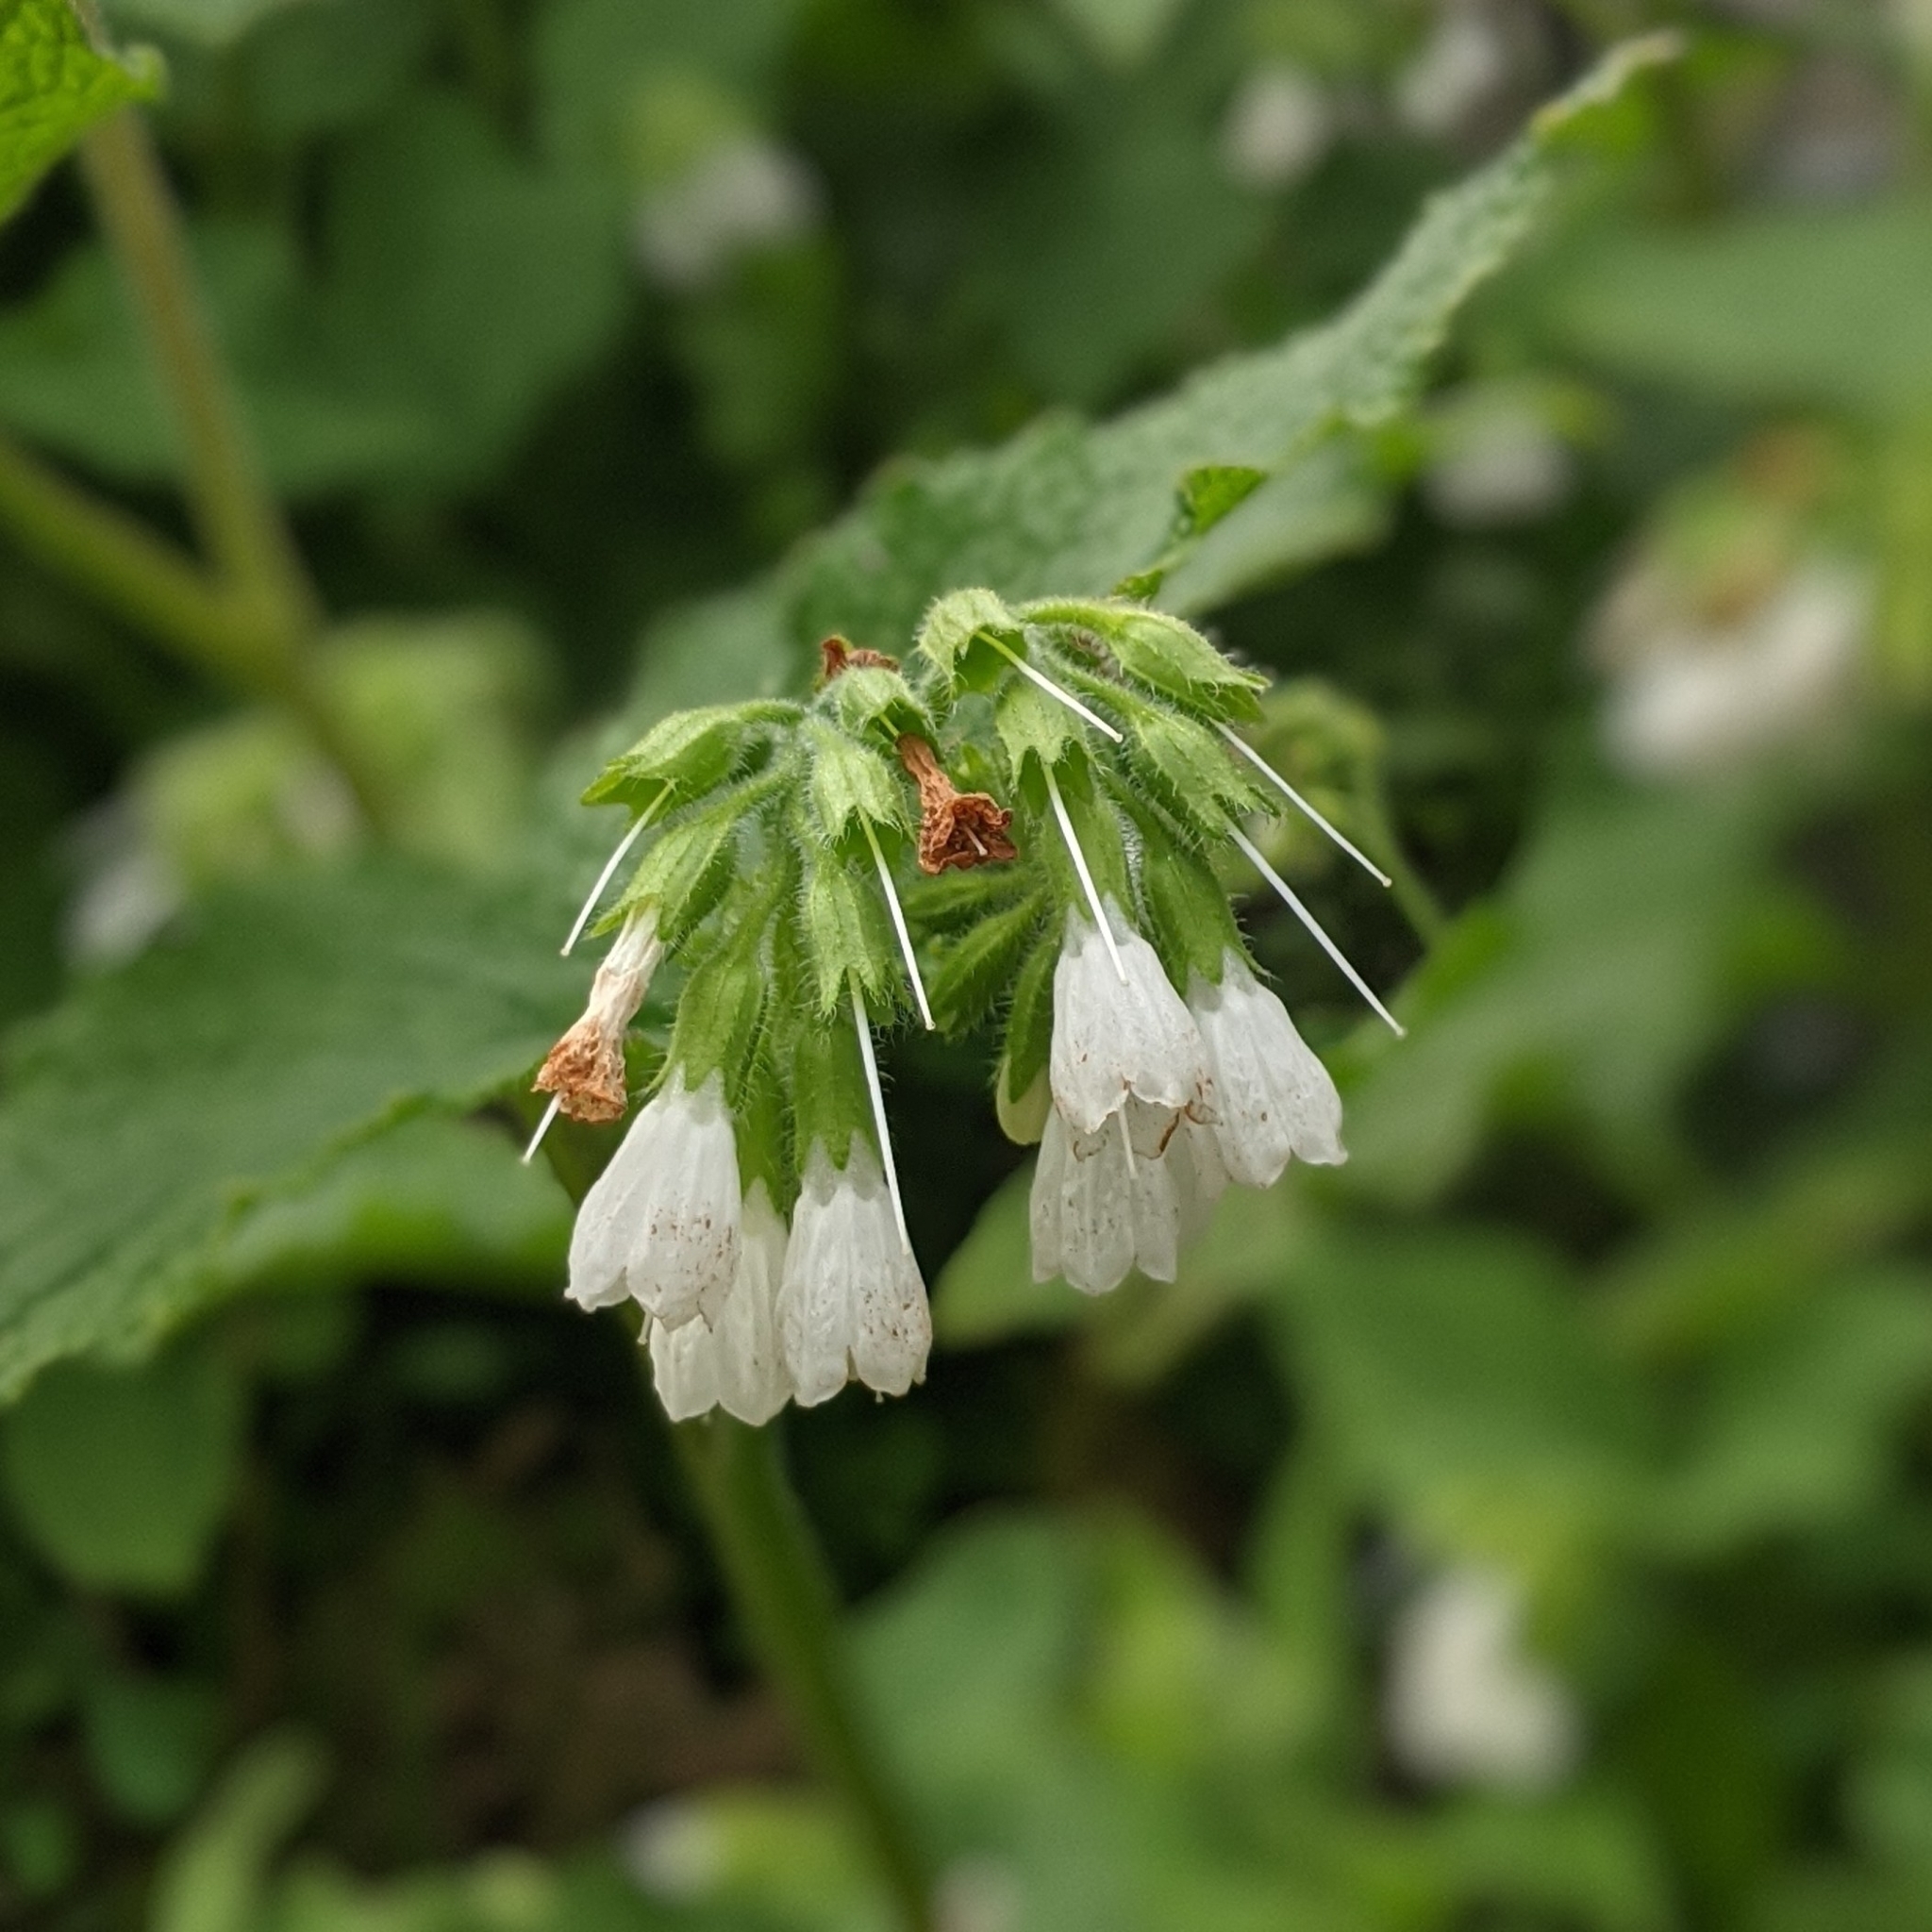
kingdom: Plantae
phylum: Tracheophyta
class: Magnoliopsida
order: Boraginales
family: Boraginaceae
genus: Symphytum
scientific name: Symphytum orientale
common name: White comfrey
